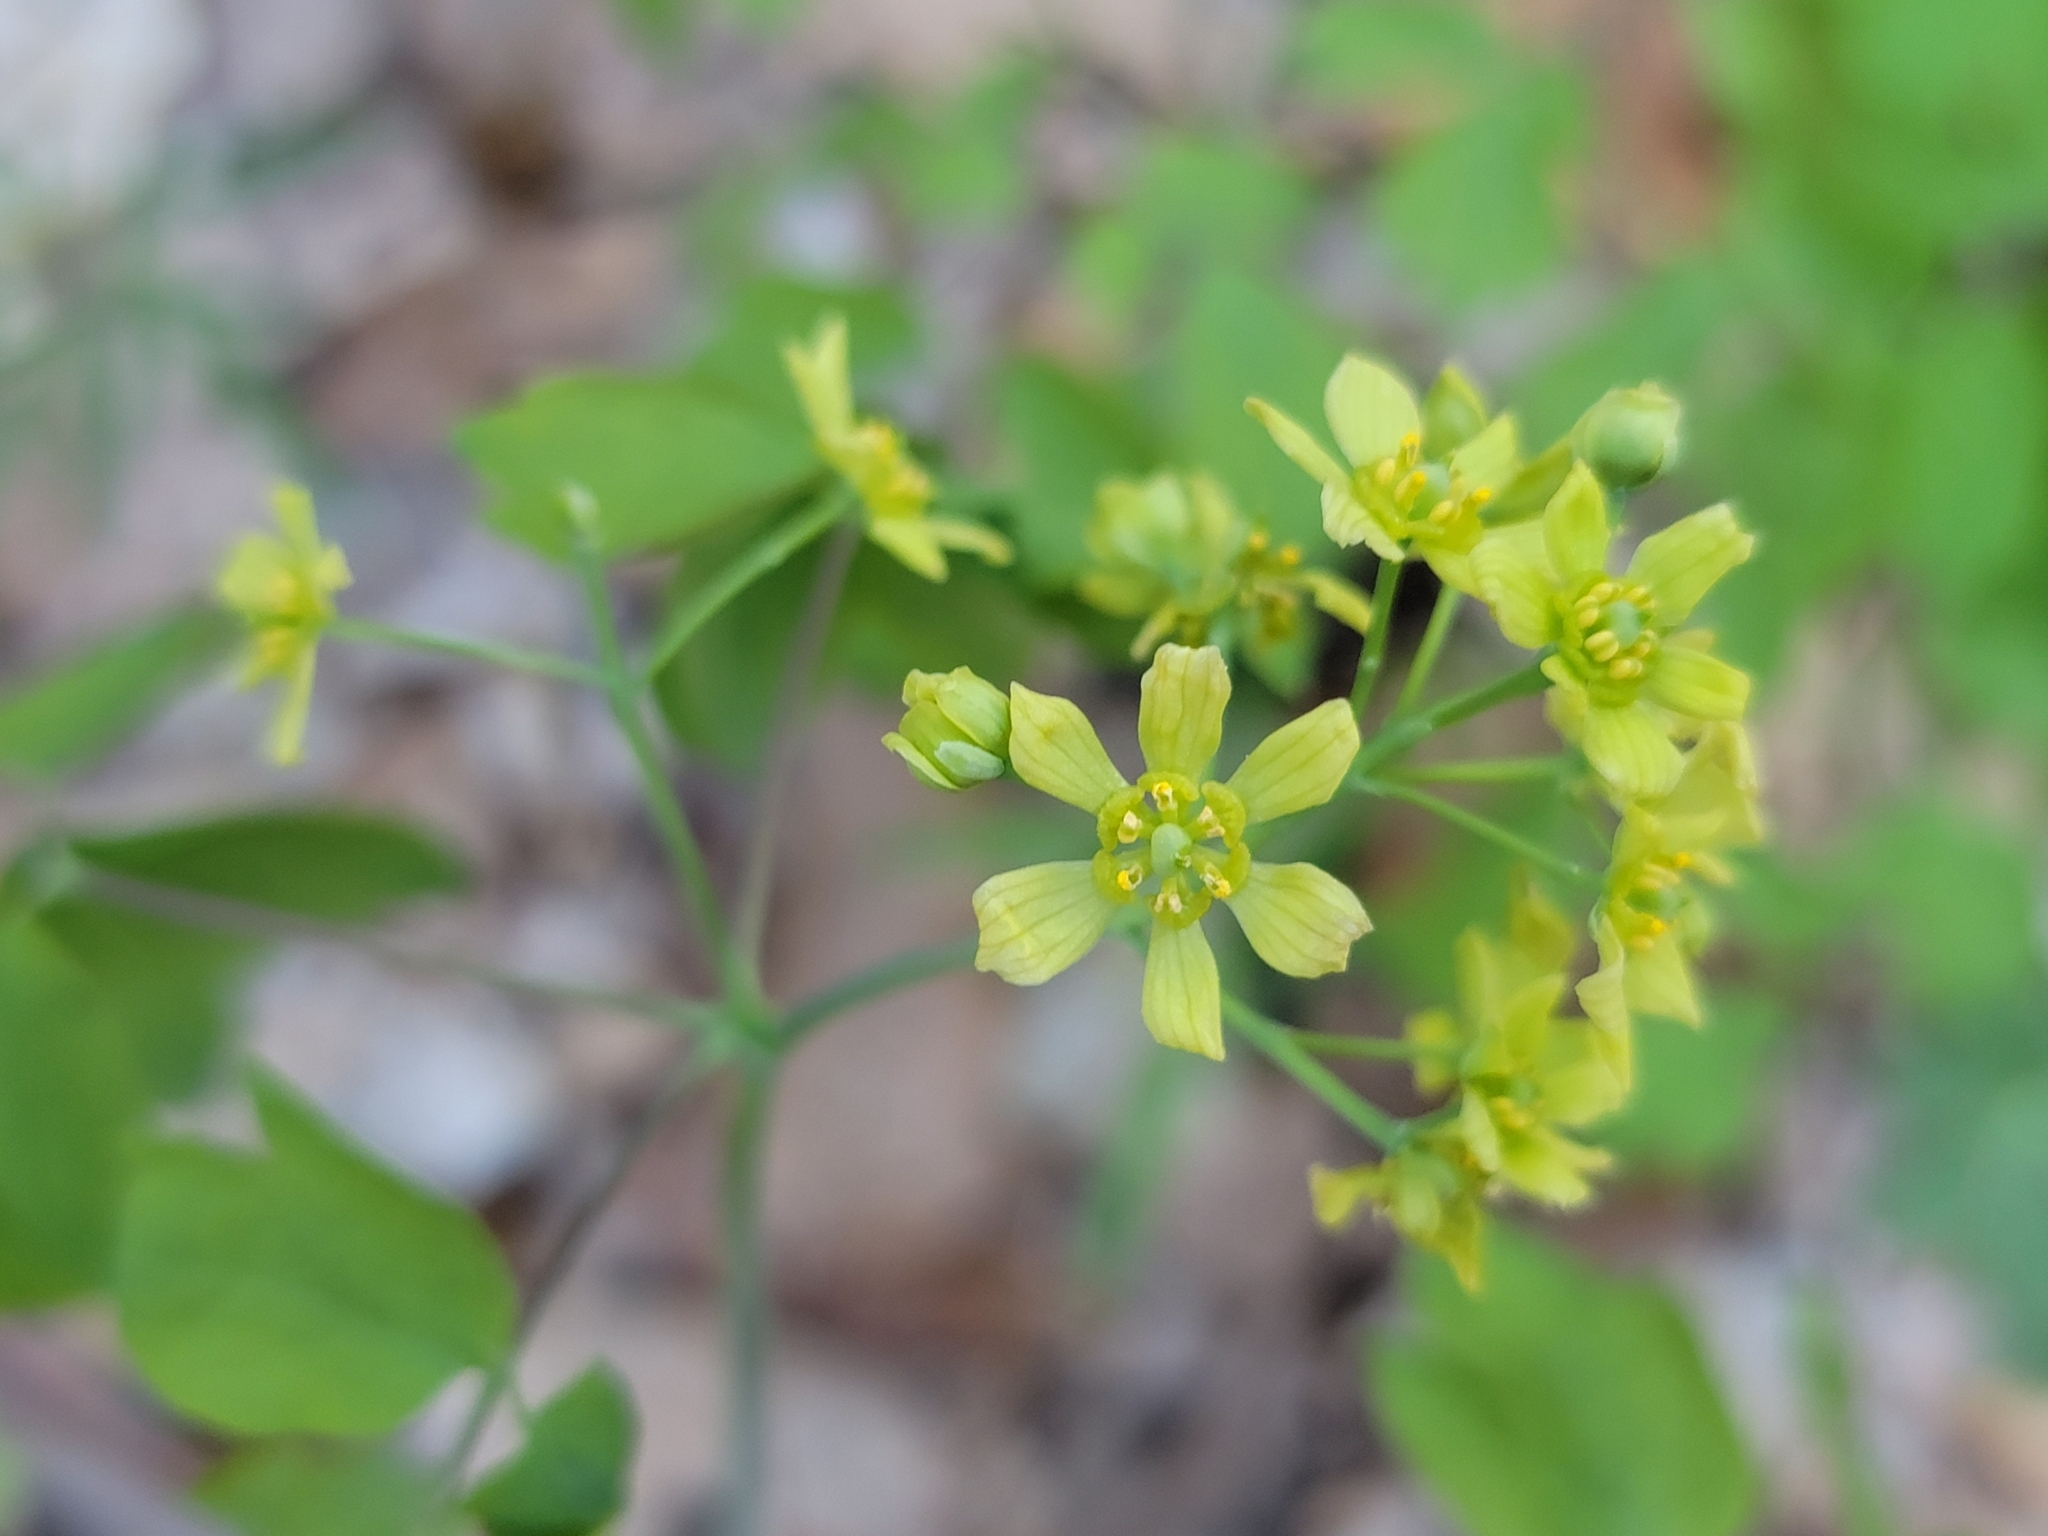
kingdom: Plantae
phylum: Tracheophyta
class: Magnoliopsida
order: Ranunculales
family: Berberidaceae
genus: Caulophyllum
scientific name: Caulophyllum thalictroides
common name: Blue cohosh
